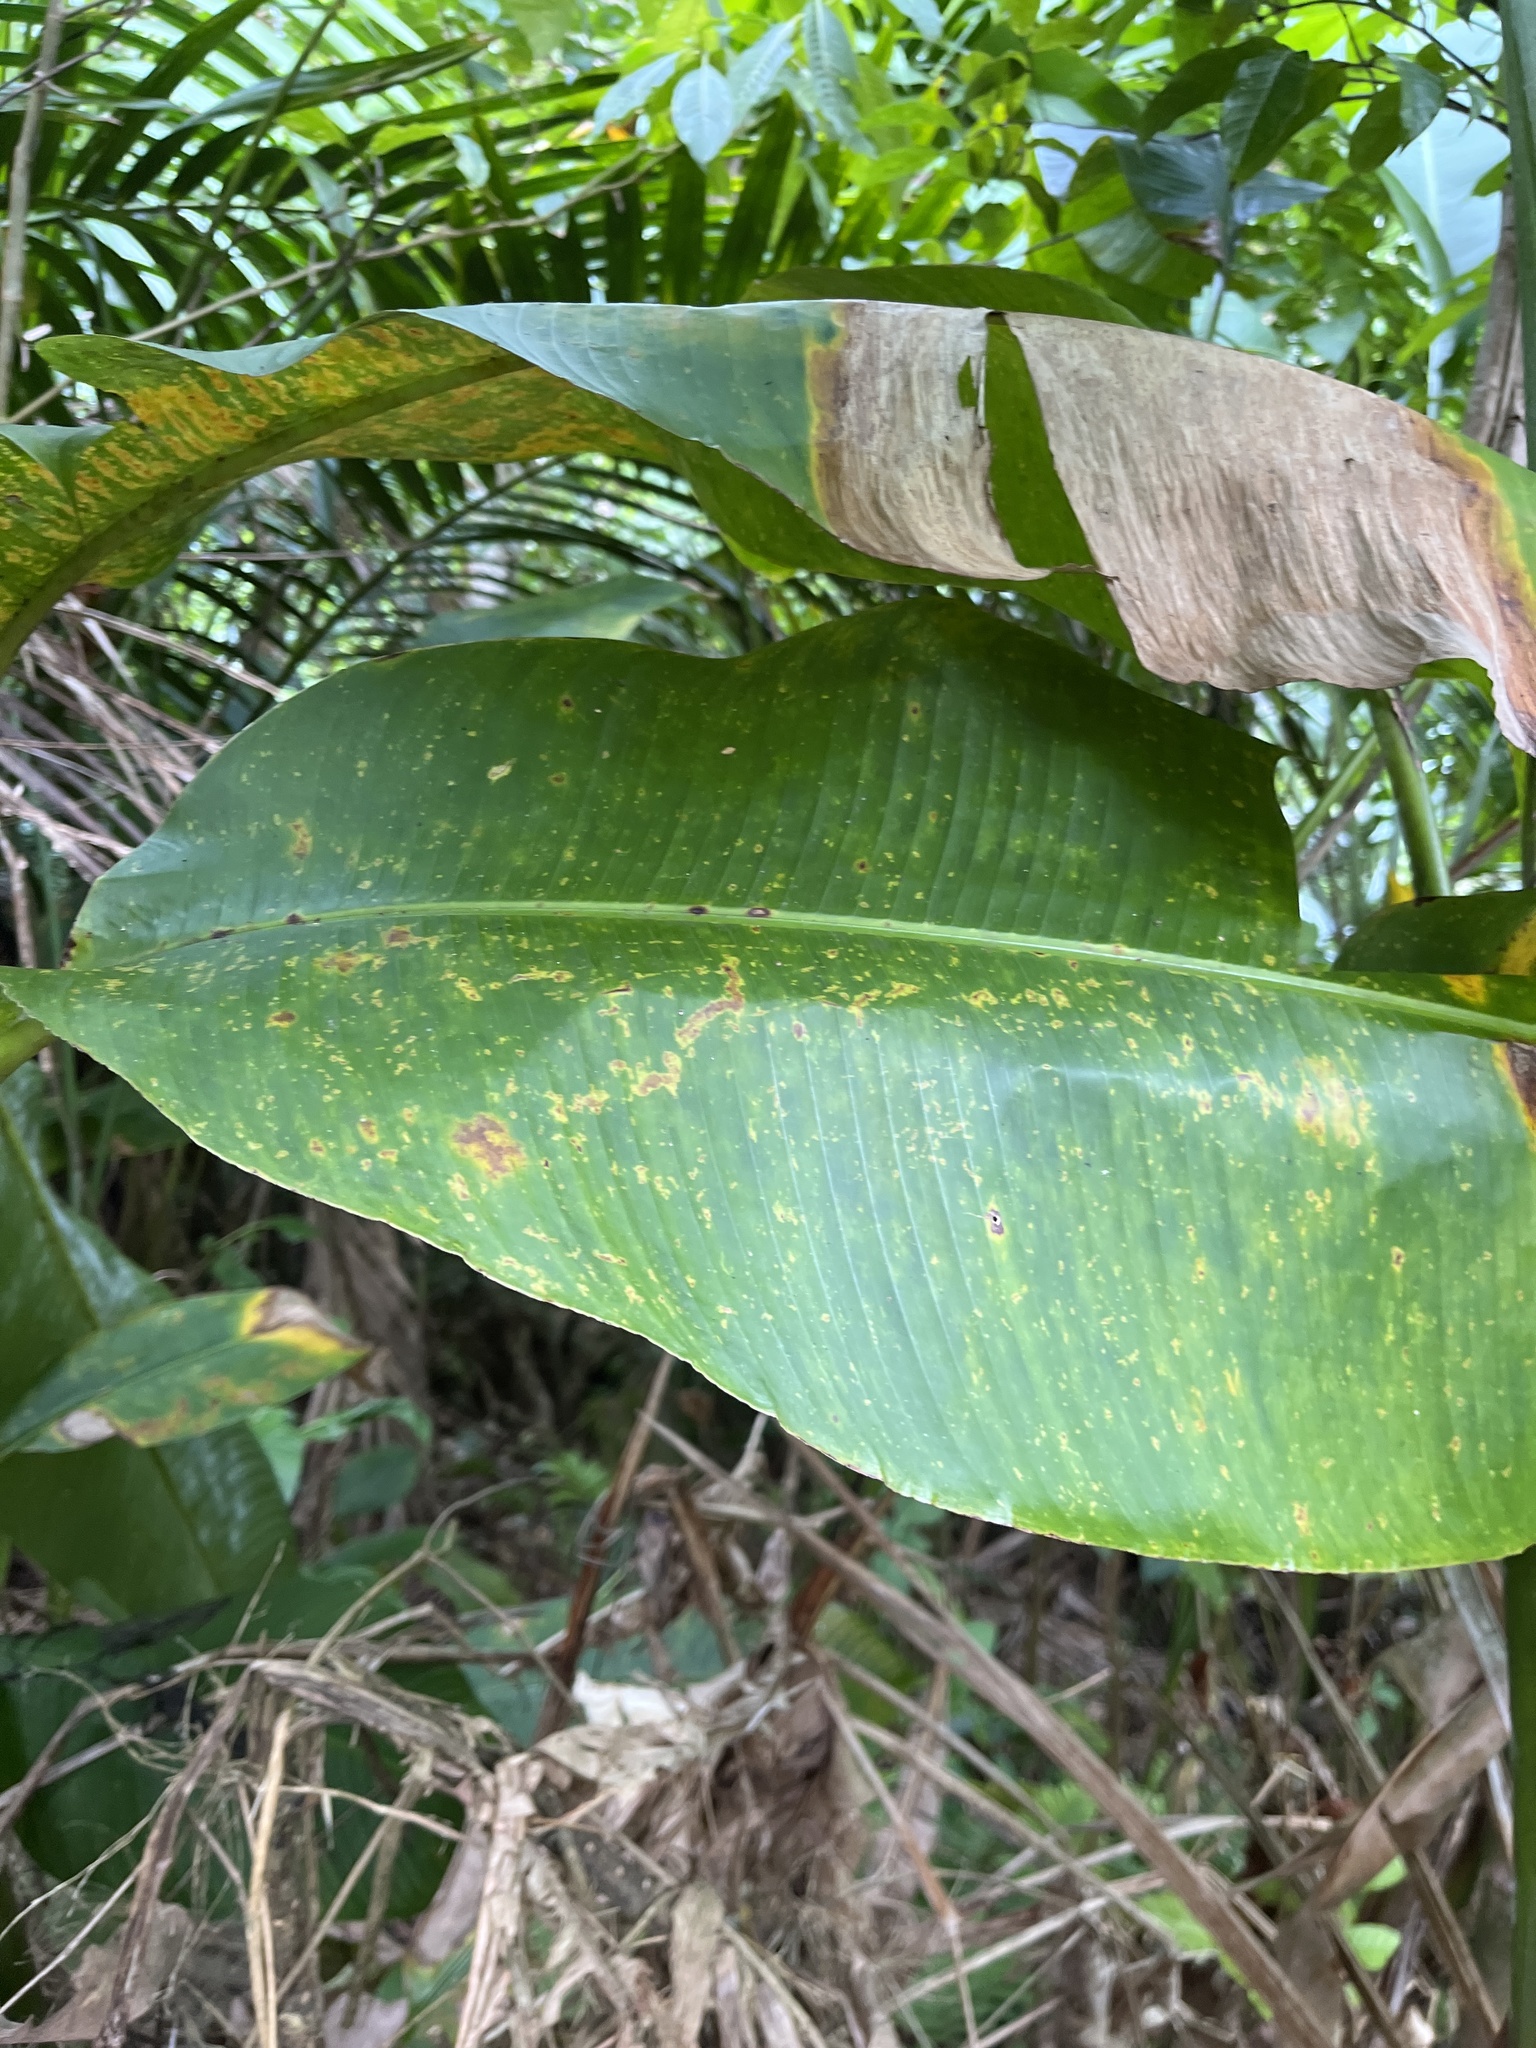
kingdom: Plantae
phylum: Tracheophyta
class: Liliopsida
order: Zingiberales
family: Heliconiaceae
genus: Heliconia
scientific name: Heliconia caribaea
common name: Wild plantain
